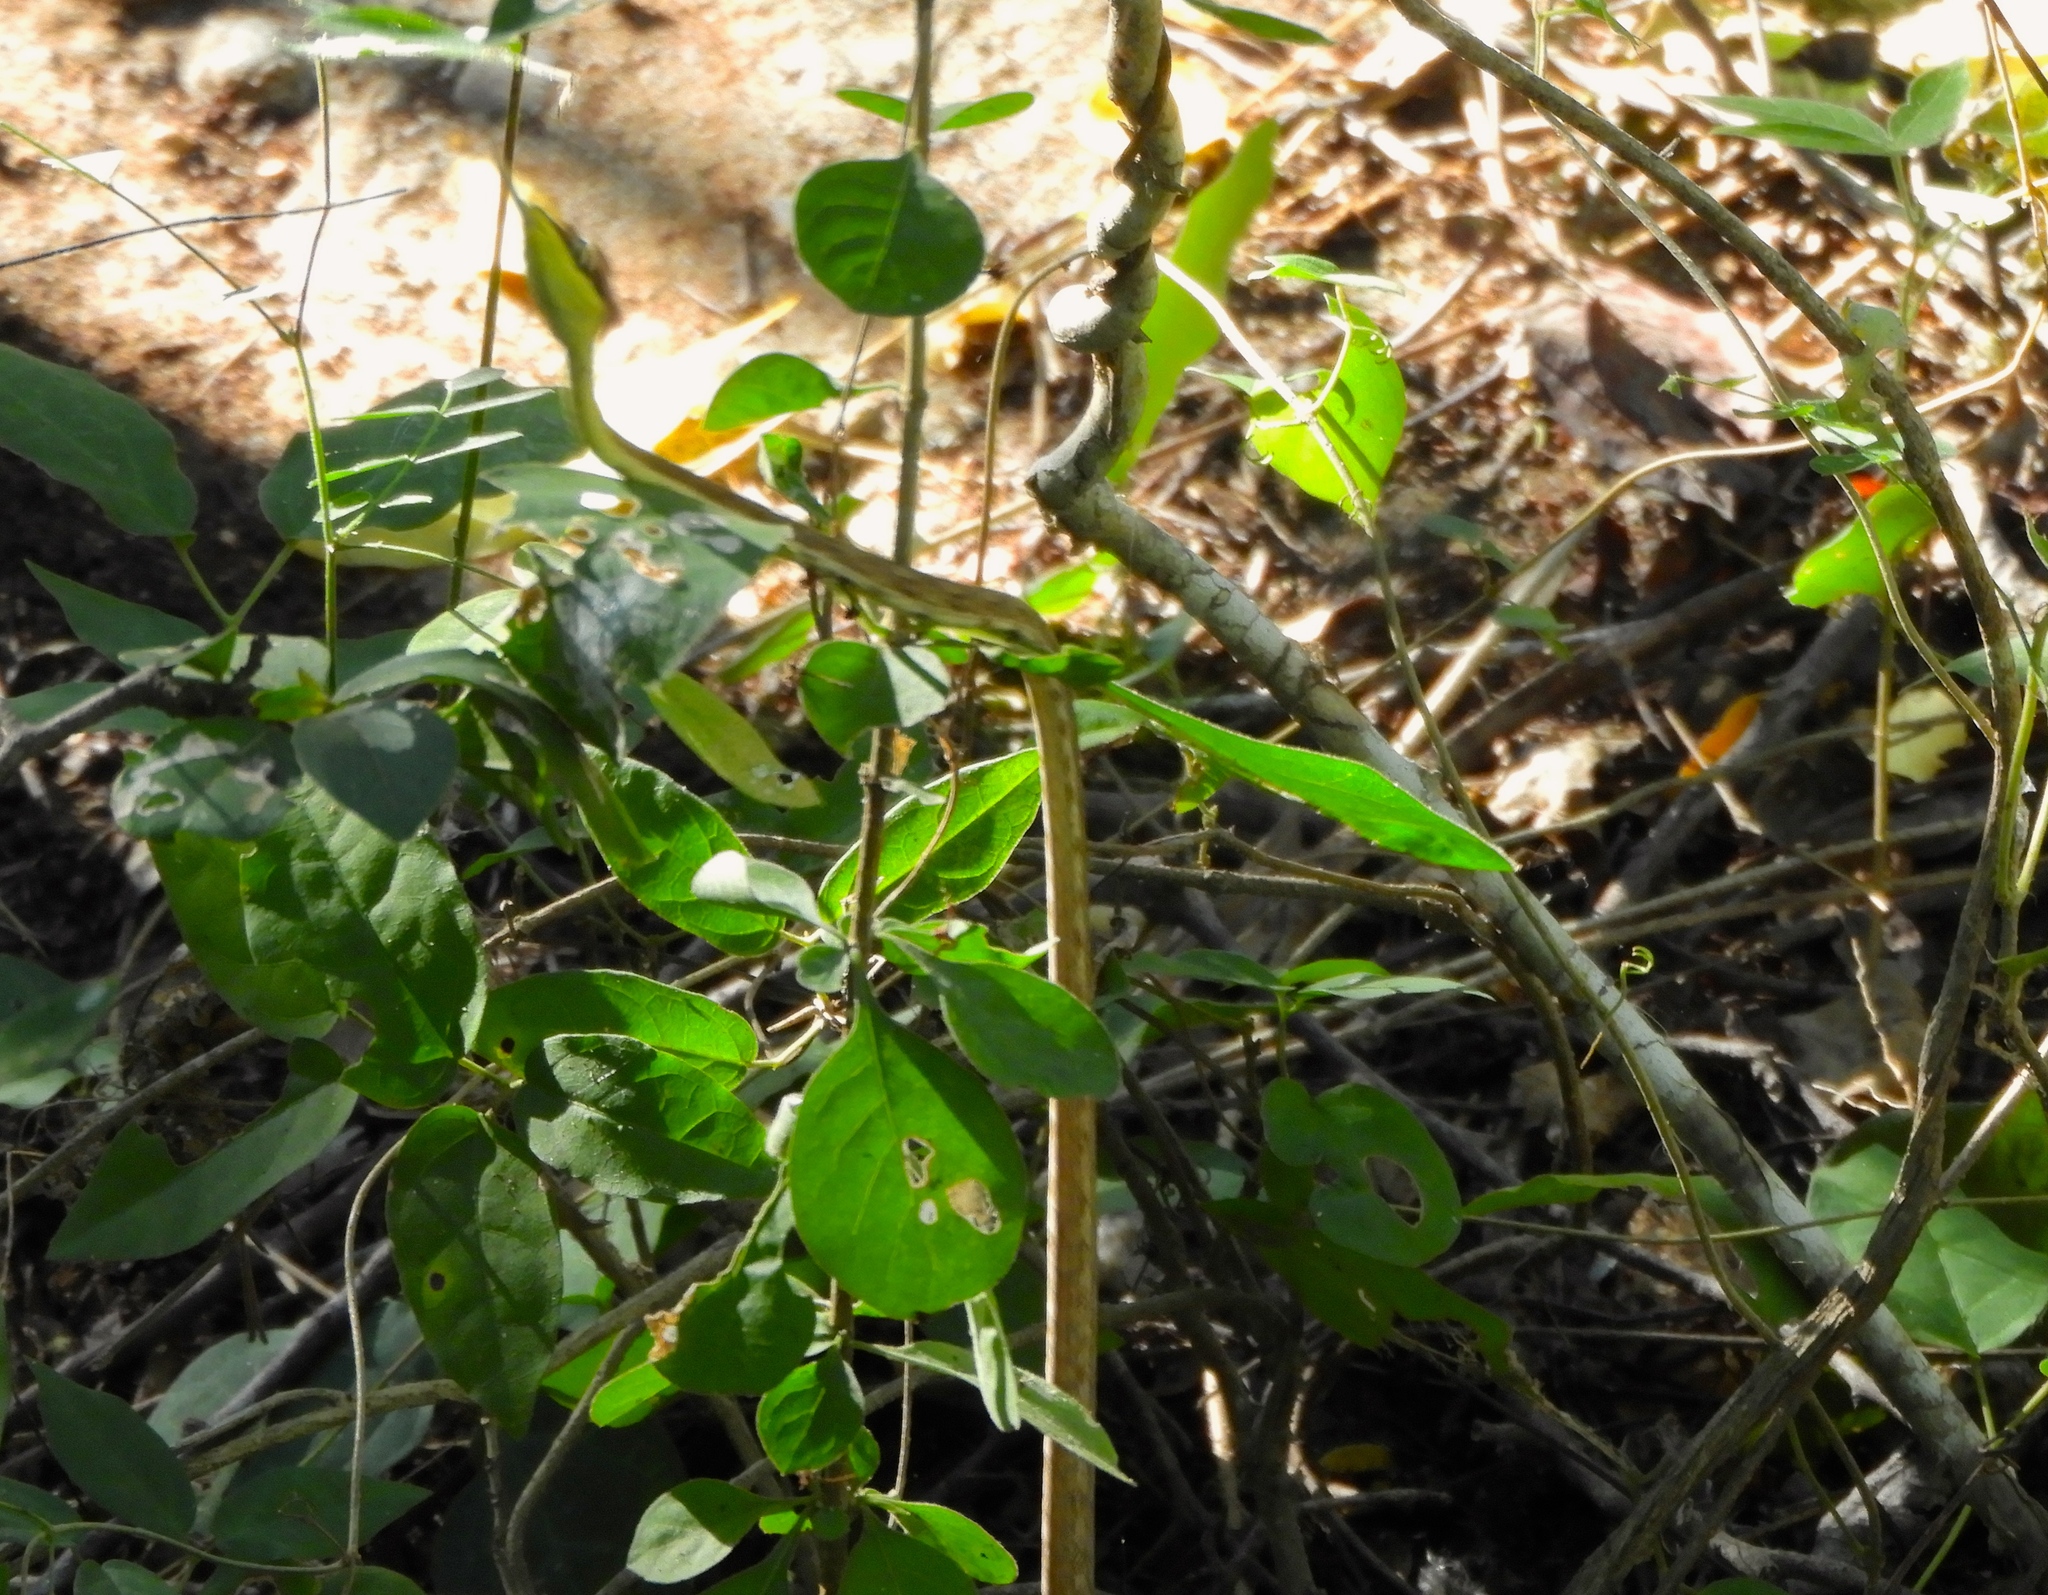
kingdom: Animalia
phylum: Chordata
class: Squamata
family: Colubridae
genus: Oxybelis
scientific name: Oxybelis microphthalmus
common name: Thrornscrub vine snake
